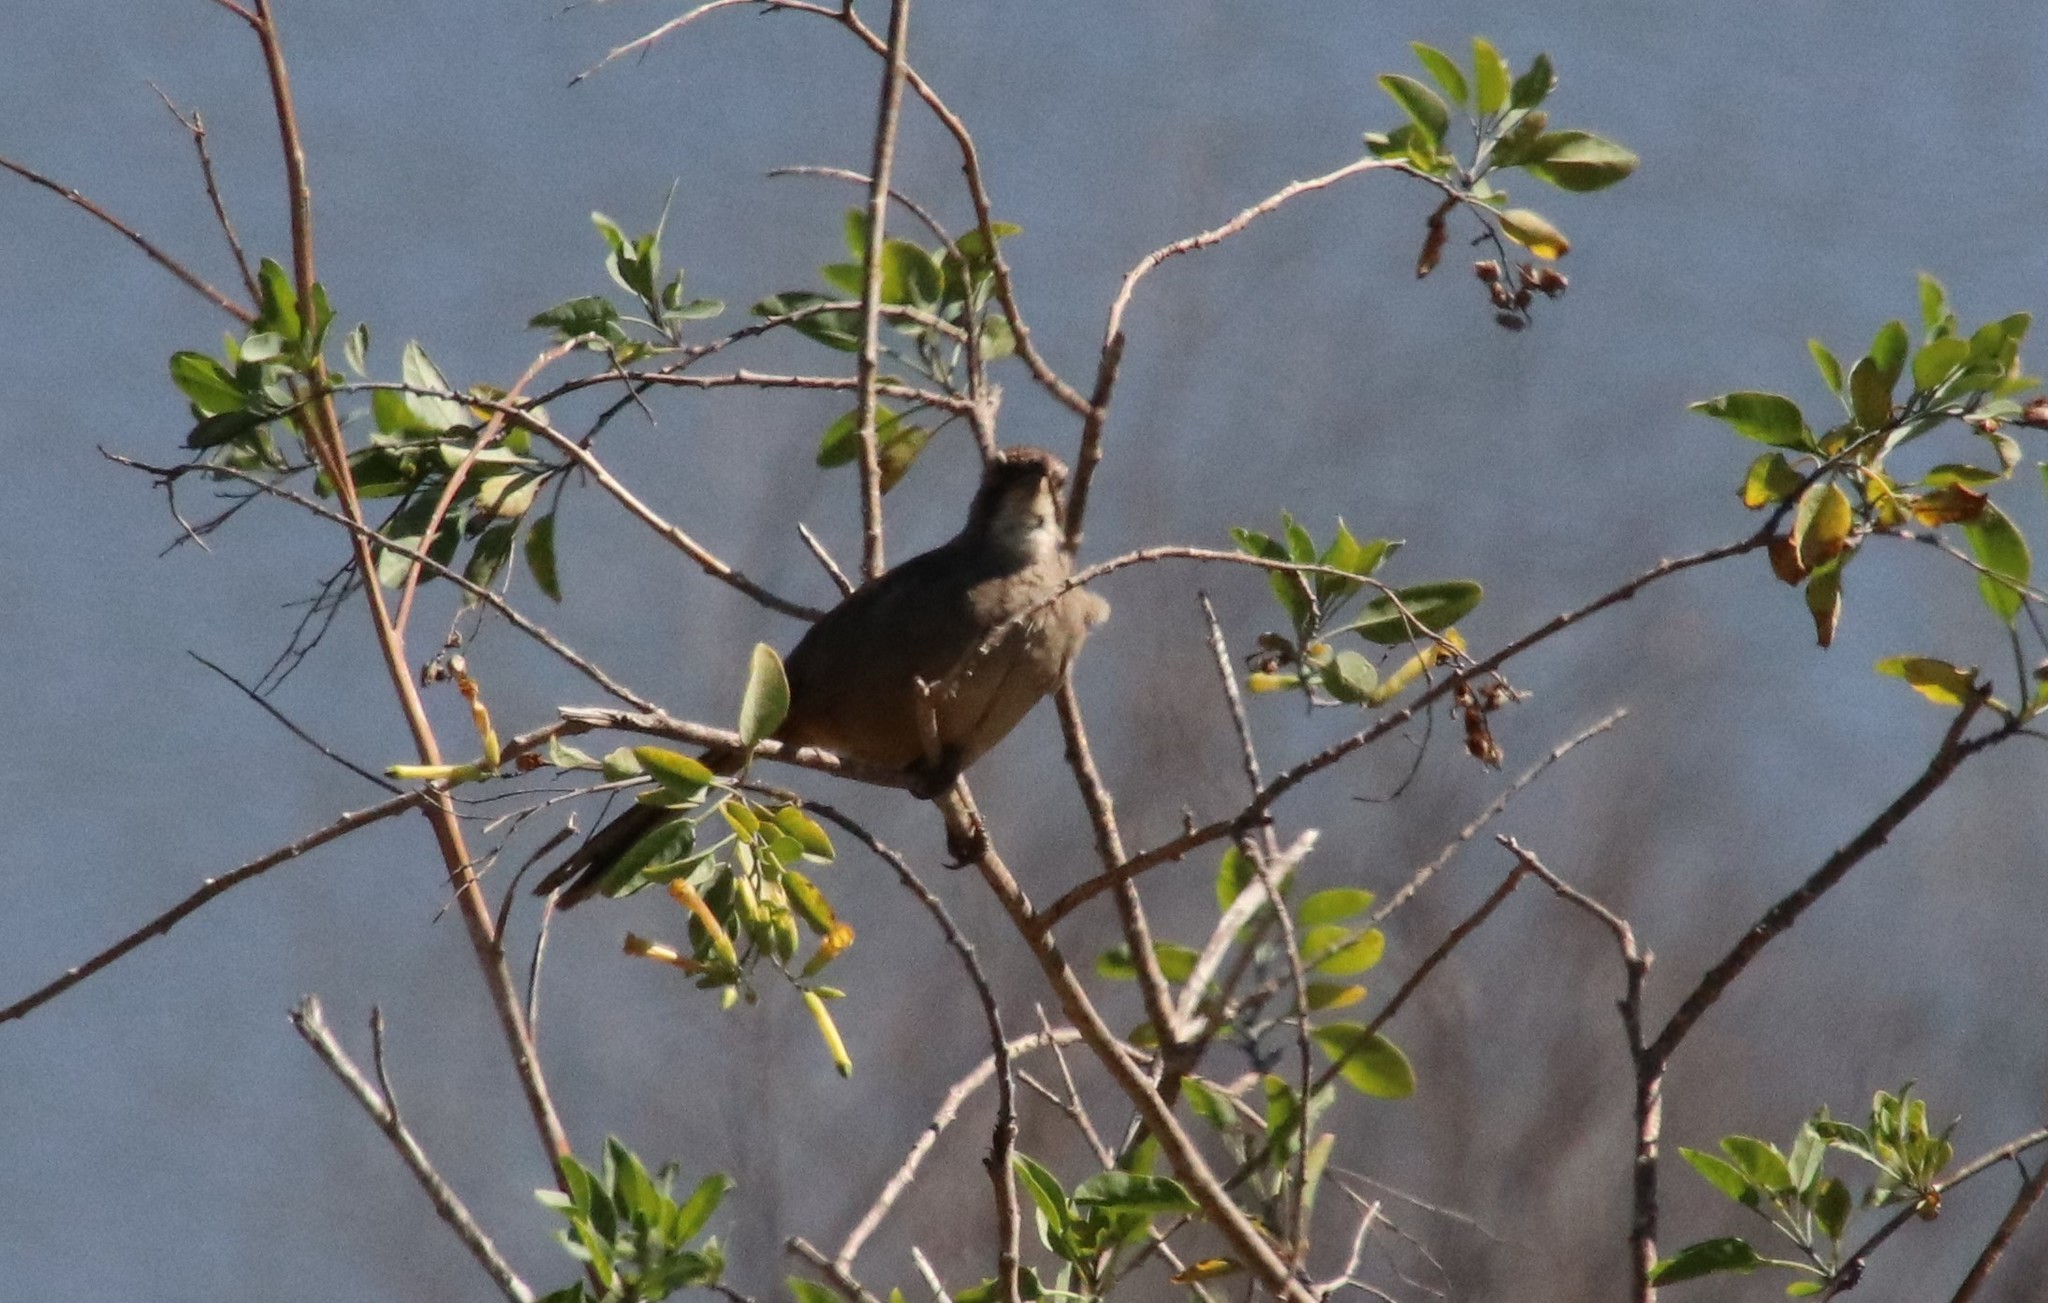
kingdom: Animalia
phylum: Chordata
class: Aves
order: Passeriformes
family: Mimidae
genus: Toxostoma
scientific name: Toxostoma redivivum
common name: California thrasher
